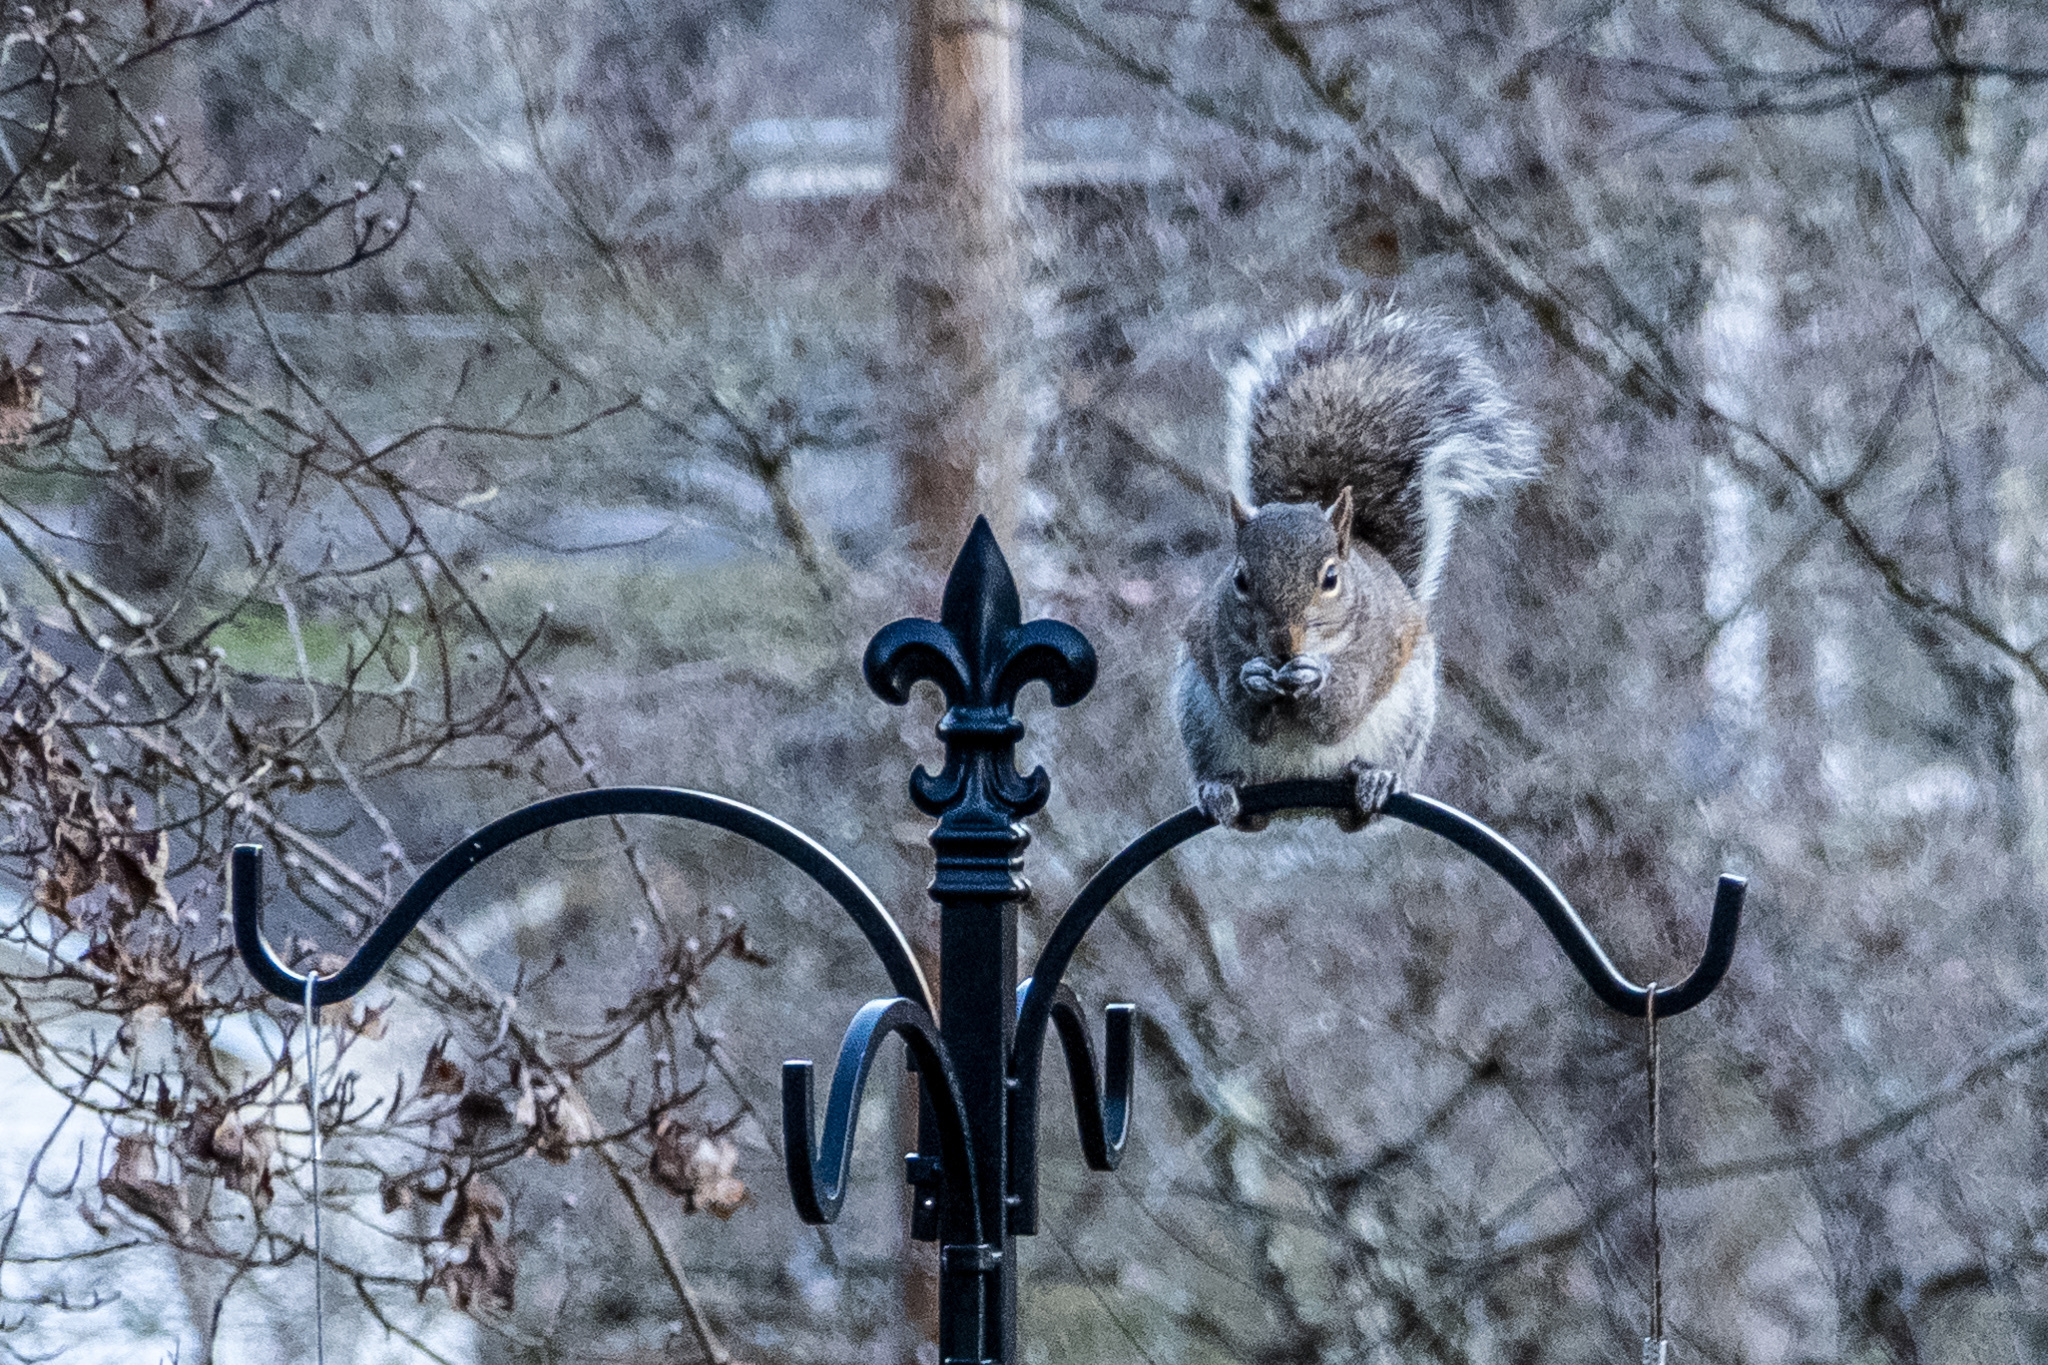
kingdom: Animalia
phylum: Chordata
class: Mammalia
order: Rodentia
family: Sciuridae
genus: Sciurus
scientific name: Sciurus carolinensis
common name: Eastern gray squirrel
